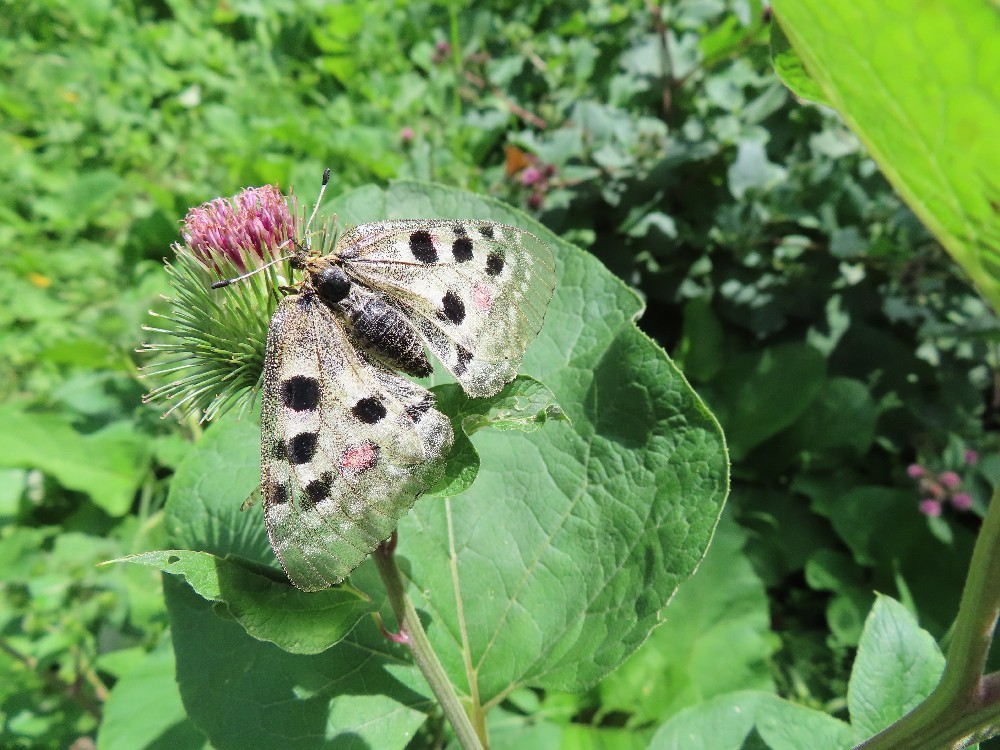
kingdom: Animalia
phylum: Arthropoda
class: Insecta
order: Lepidoptera
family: Papilionidae
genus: Parnassius
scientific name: Parnassius apollo
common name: Apollo
